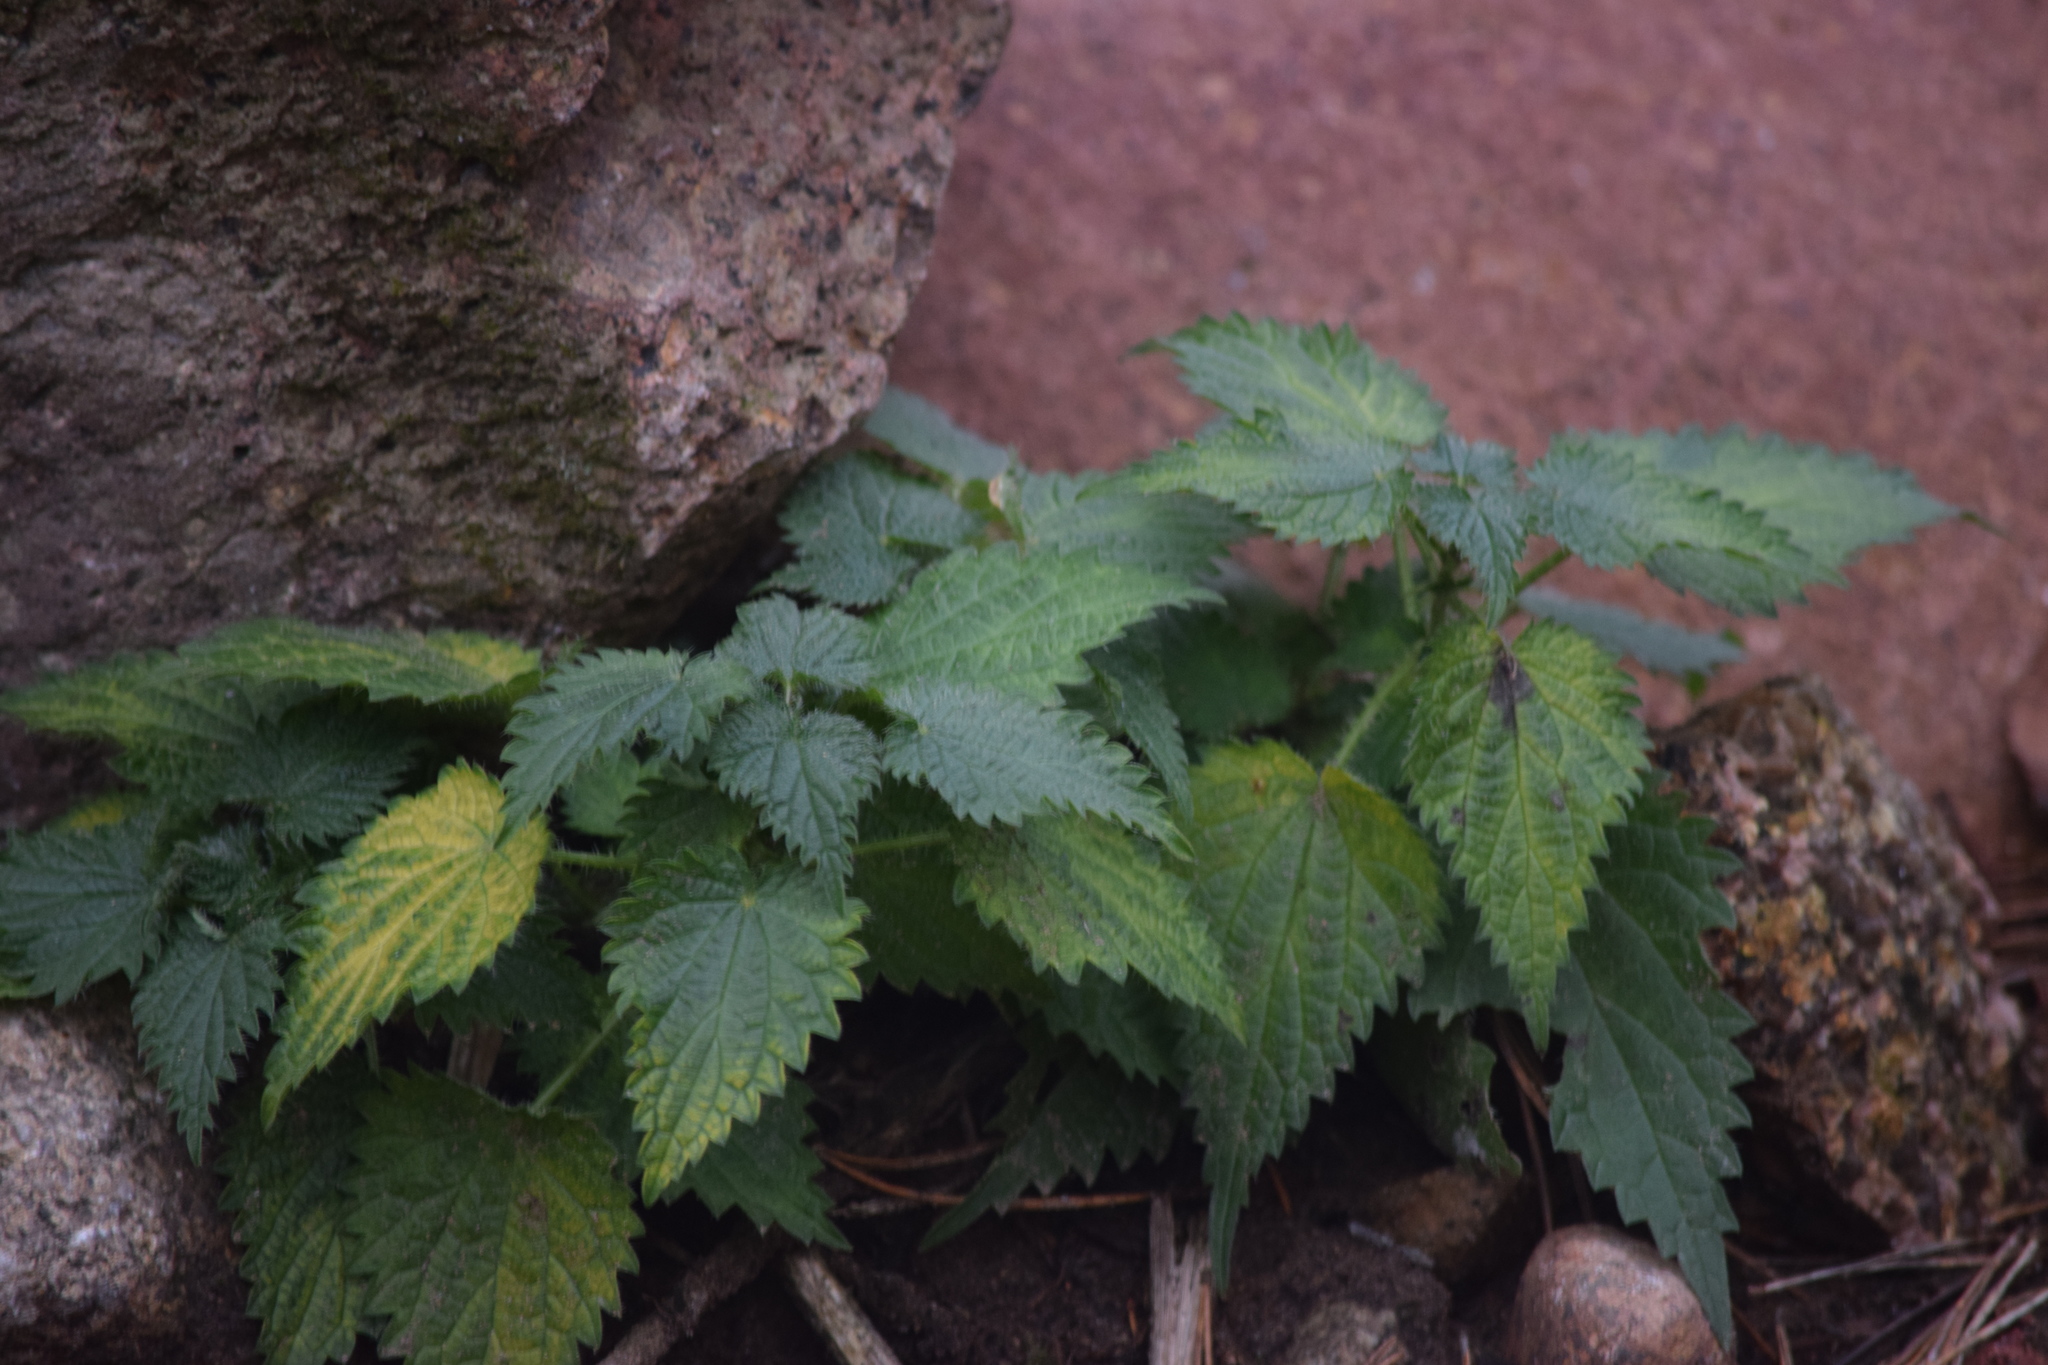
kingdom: Plantae
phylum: Tracheophyta
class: Magnoliopsida
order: Rosales
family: Urticaceae
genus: Urtica
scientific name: Urtica dioica
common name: Common nettle
